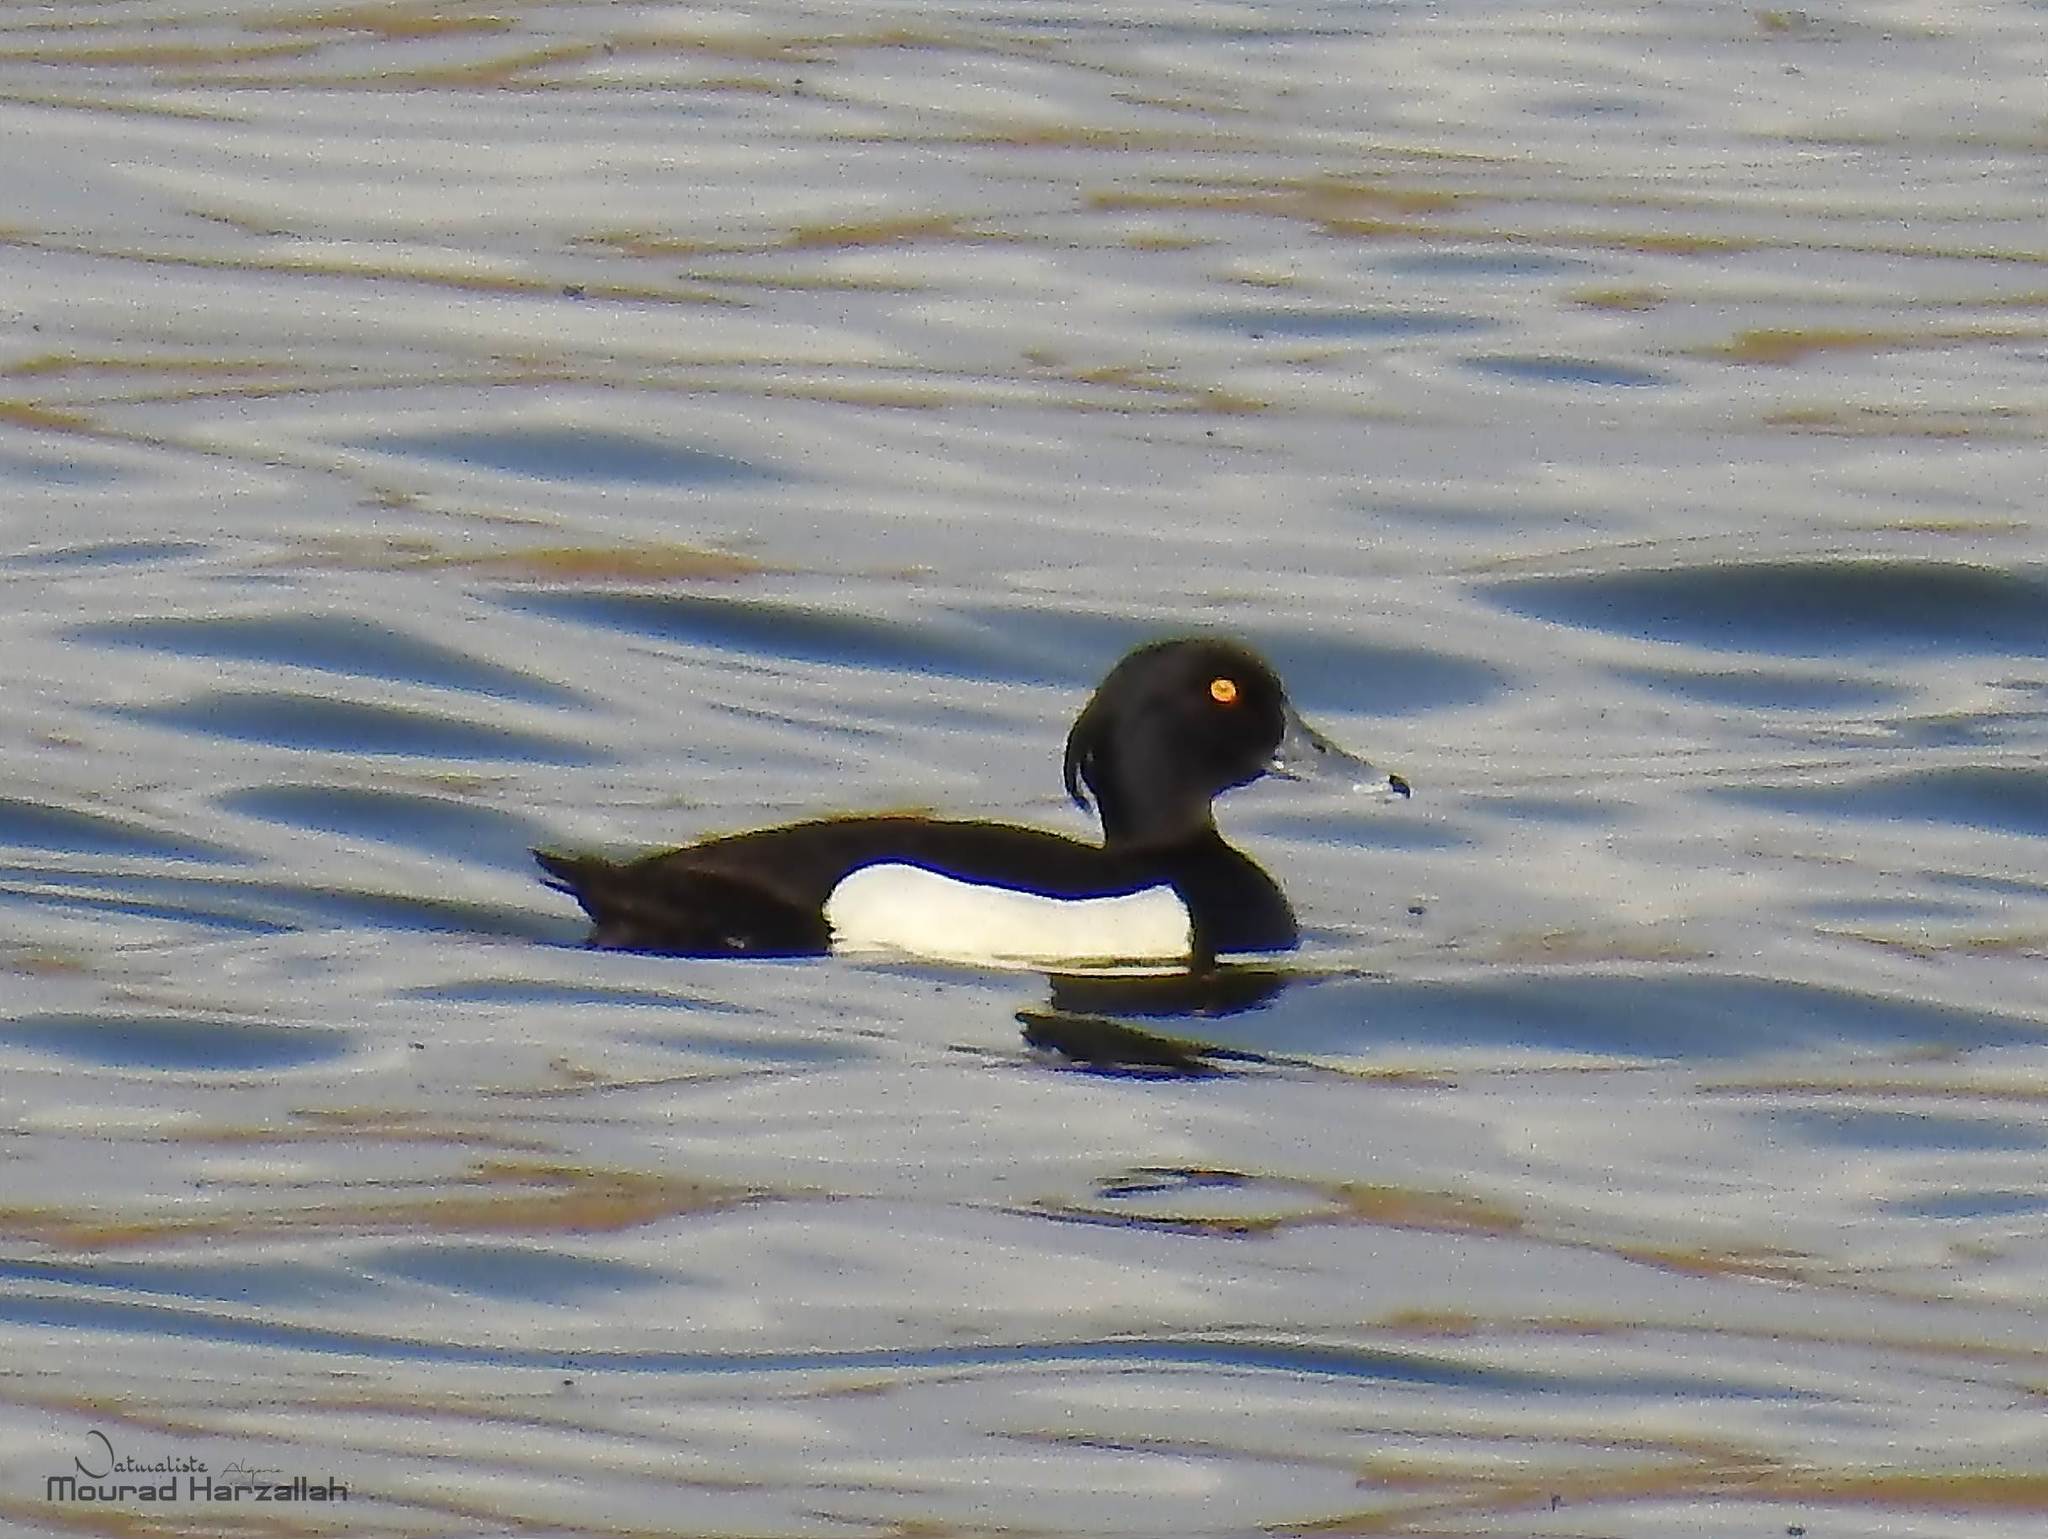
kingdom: Animalia
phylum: Chordata
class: Aves
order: Anseriformes
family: Anatidae
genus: Aythya
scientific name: Aythya fuligula
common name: Tufted duck
